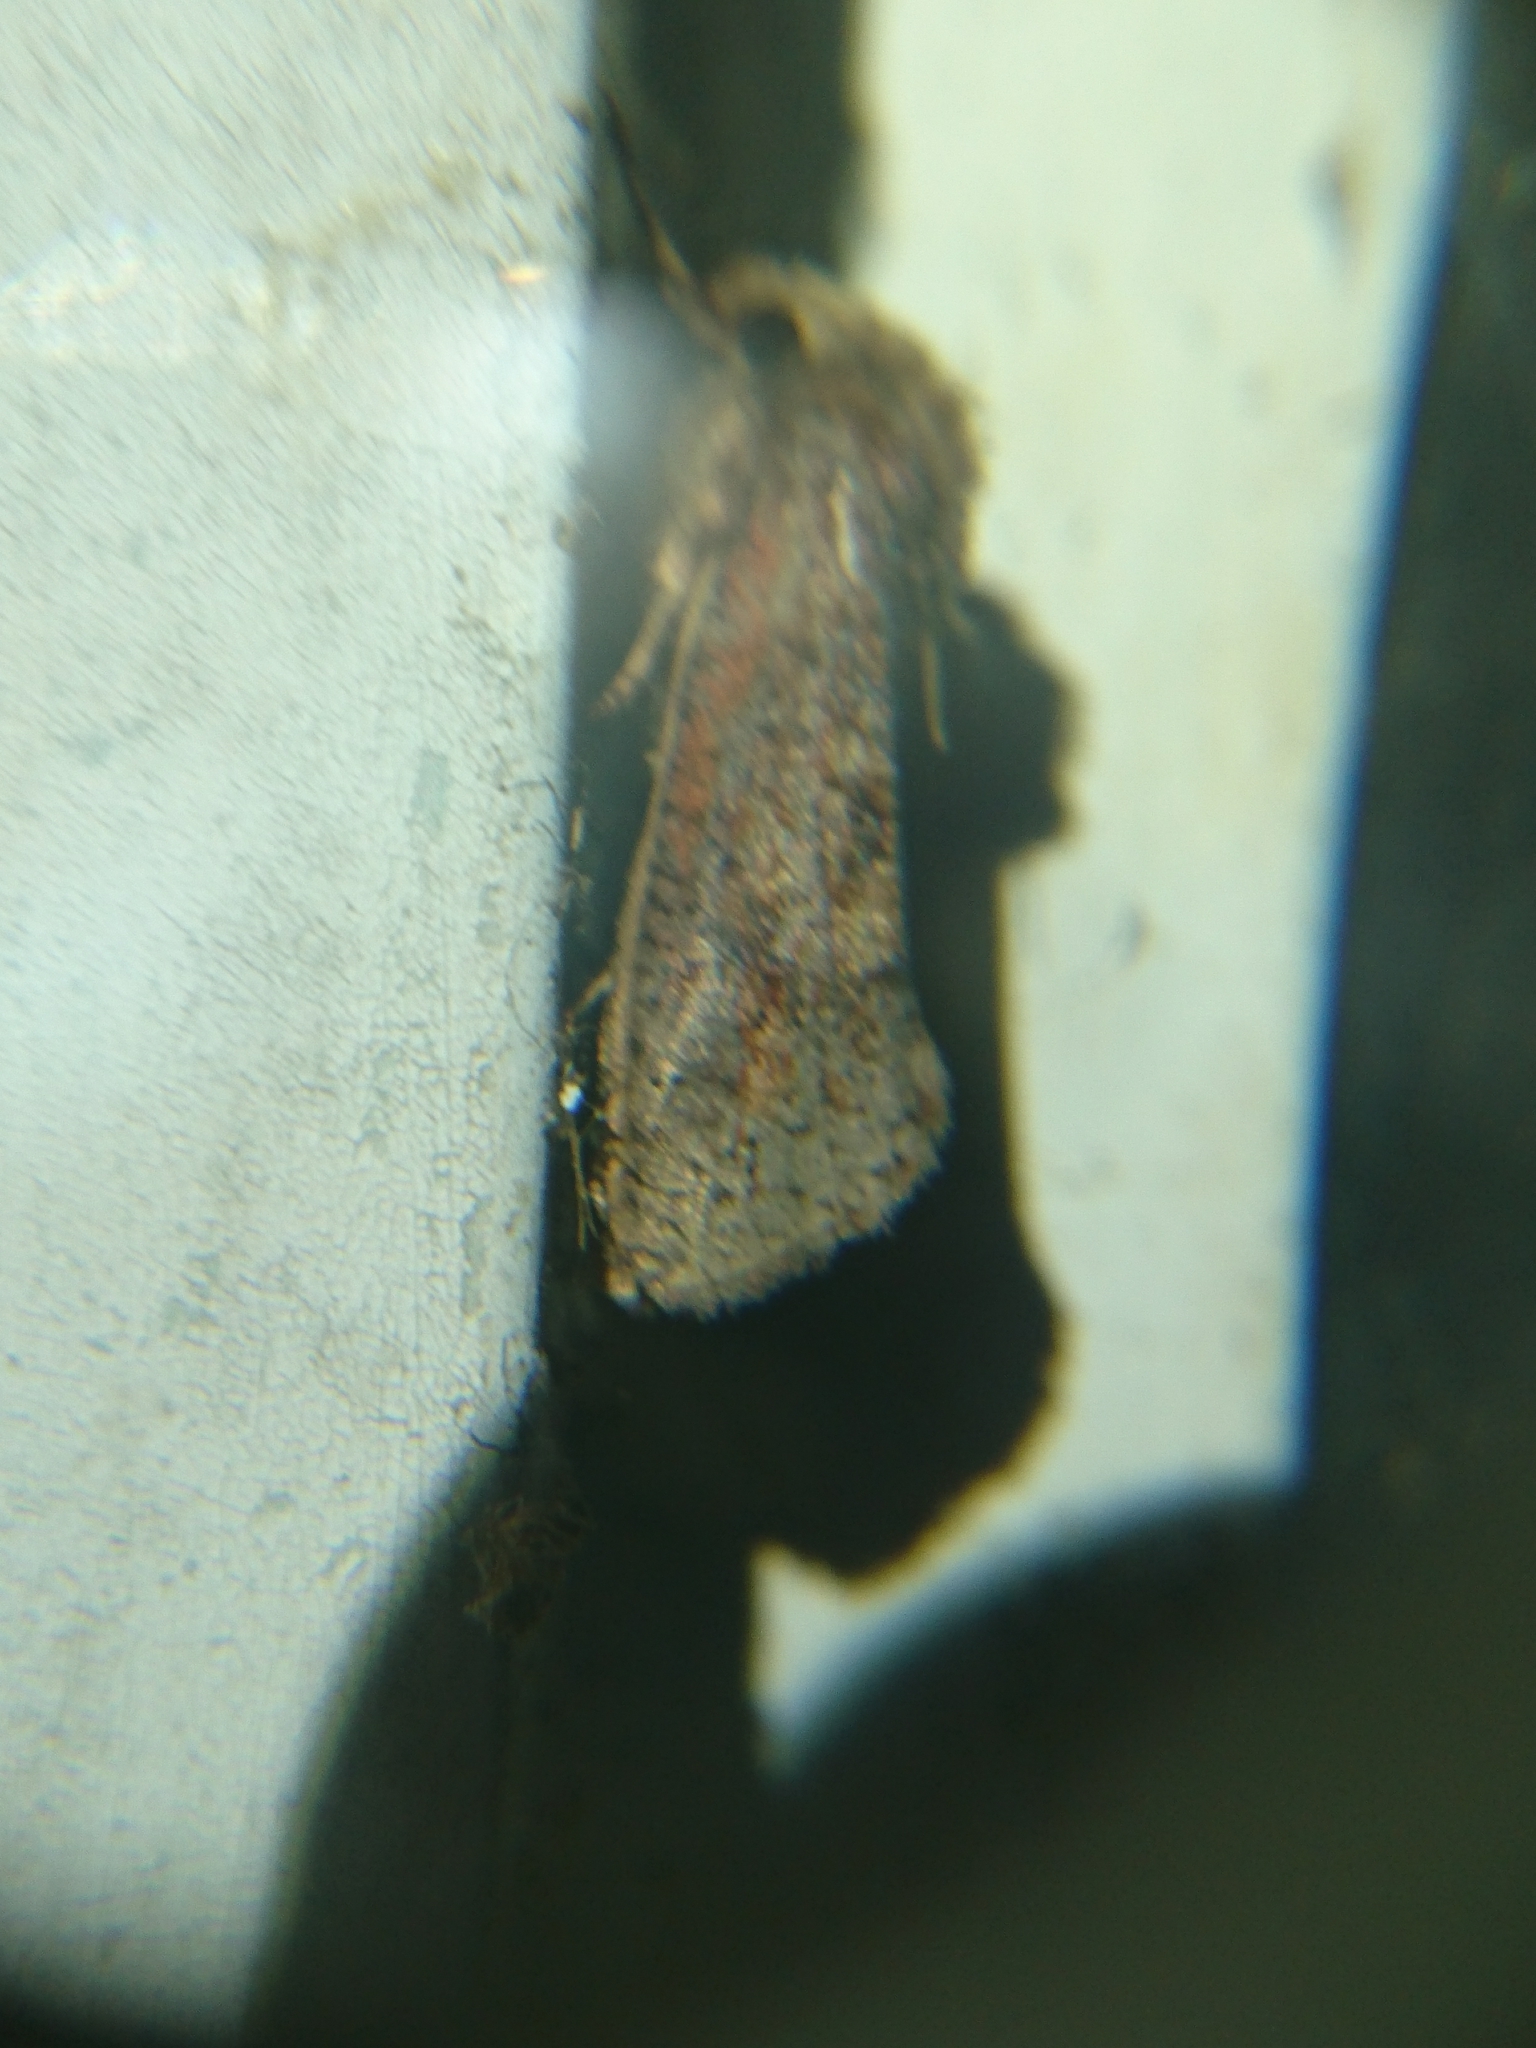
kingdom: Animalia
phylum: Arthropoda
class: Insecta
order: Lepidoptera
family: Tineidae
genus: Acrolophus
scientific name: Acrolophus plumifrontella
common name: Eastern grass tubeworm moth
